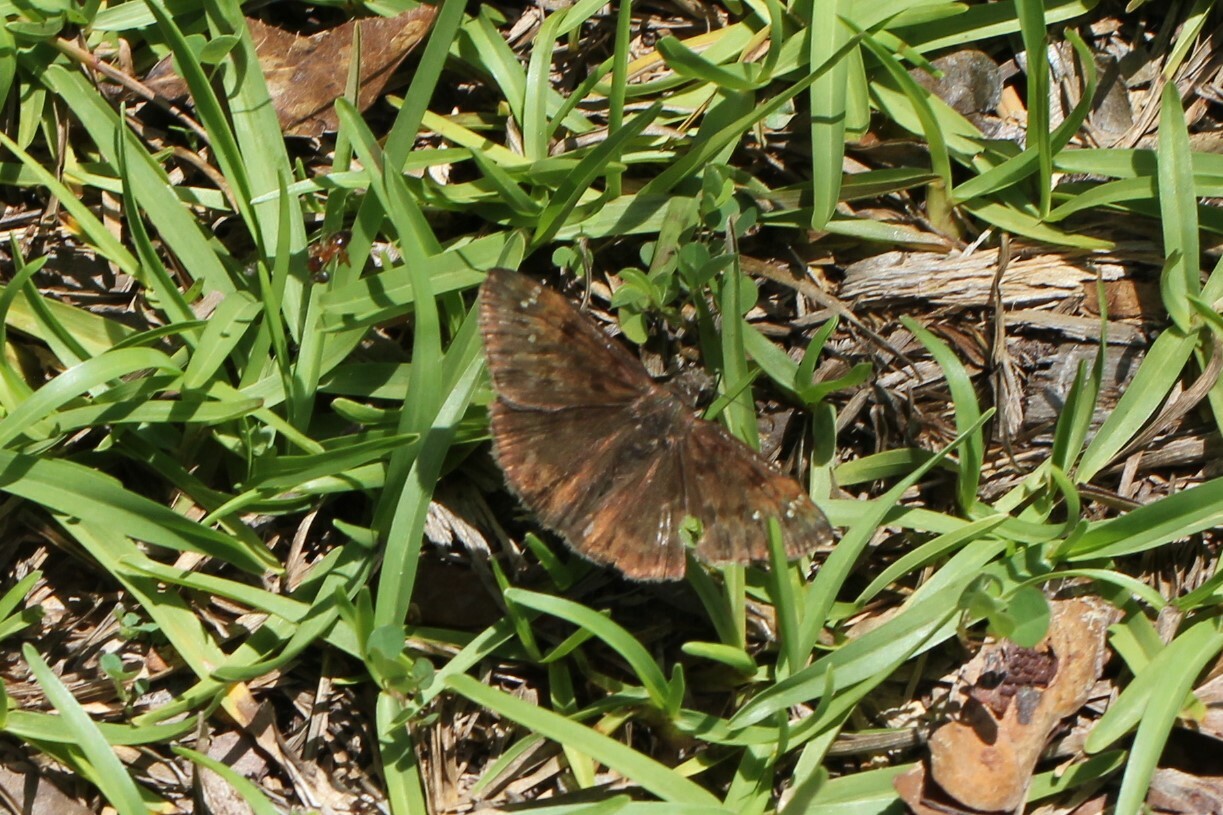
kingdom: Animalia
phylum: Arthropoda
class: Insecta
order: Lepidoptera
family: Hesperiidae
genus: Erynnis
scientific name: Erynnis zarucco
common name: Zarucco duskywing
